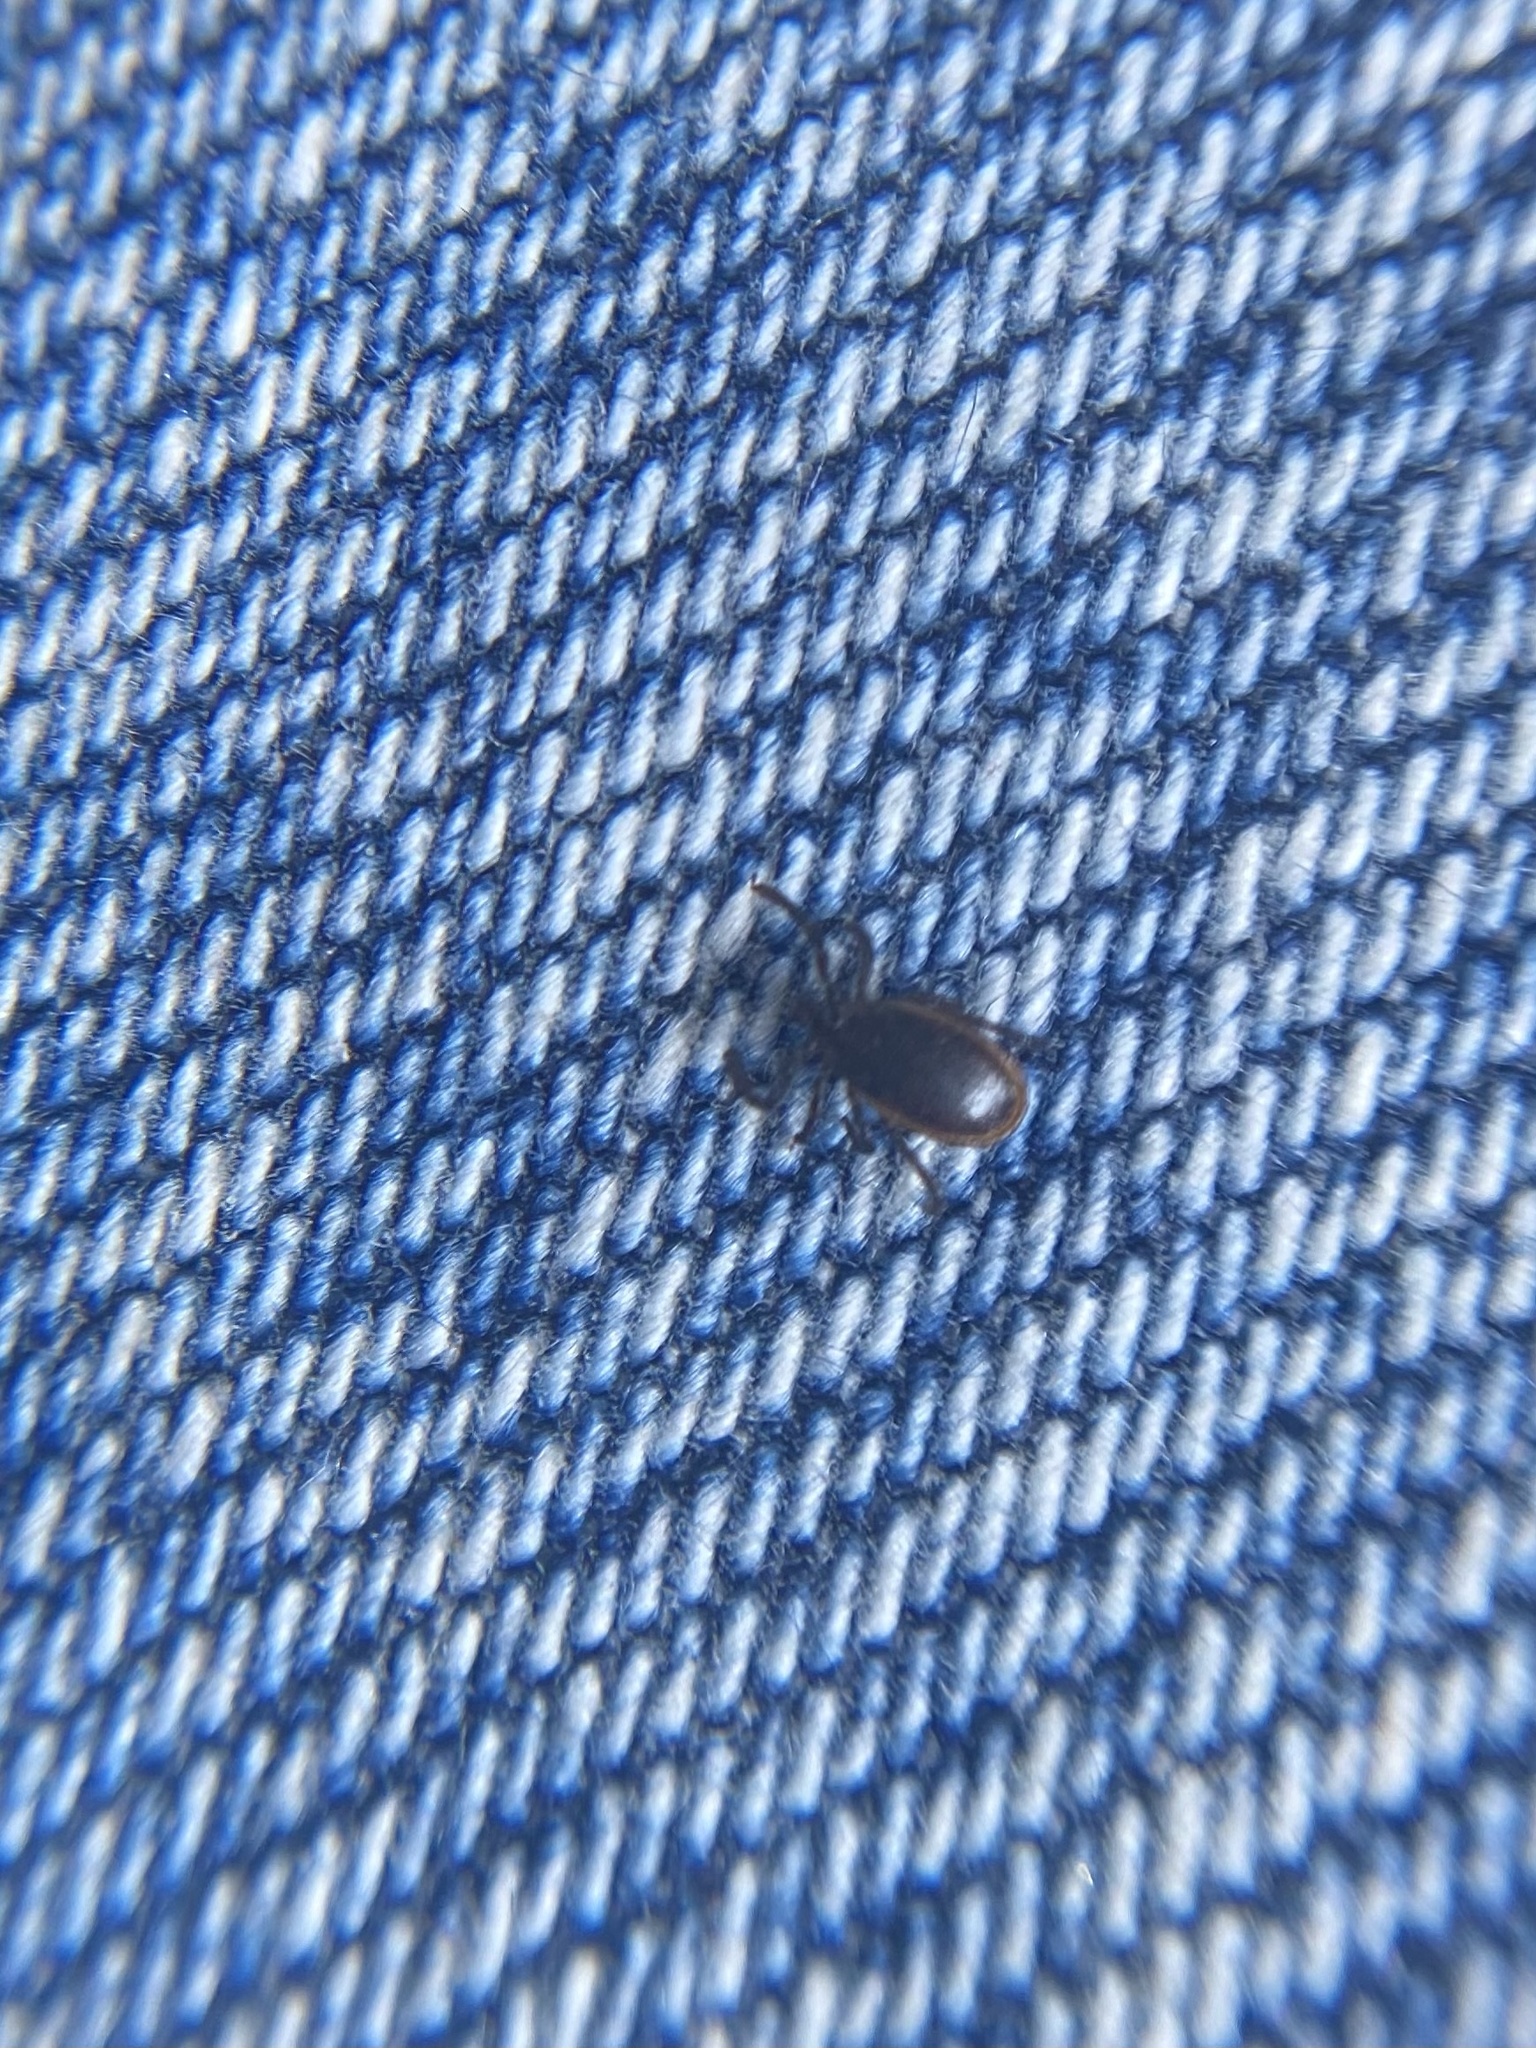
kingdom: Animalia
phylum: Arthropoda
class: Arachnida
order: Ixodida
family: Ixodidae
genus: Ixodes
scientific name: Ixodes pacificus
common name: California black-legged tick
